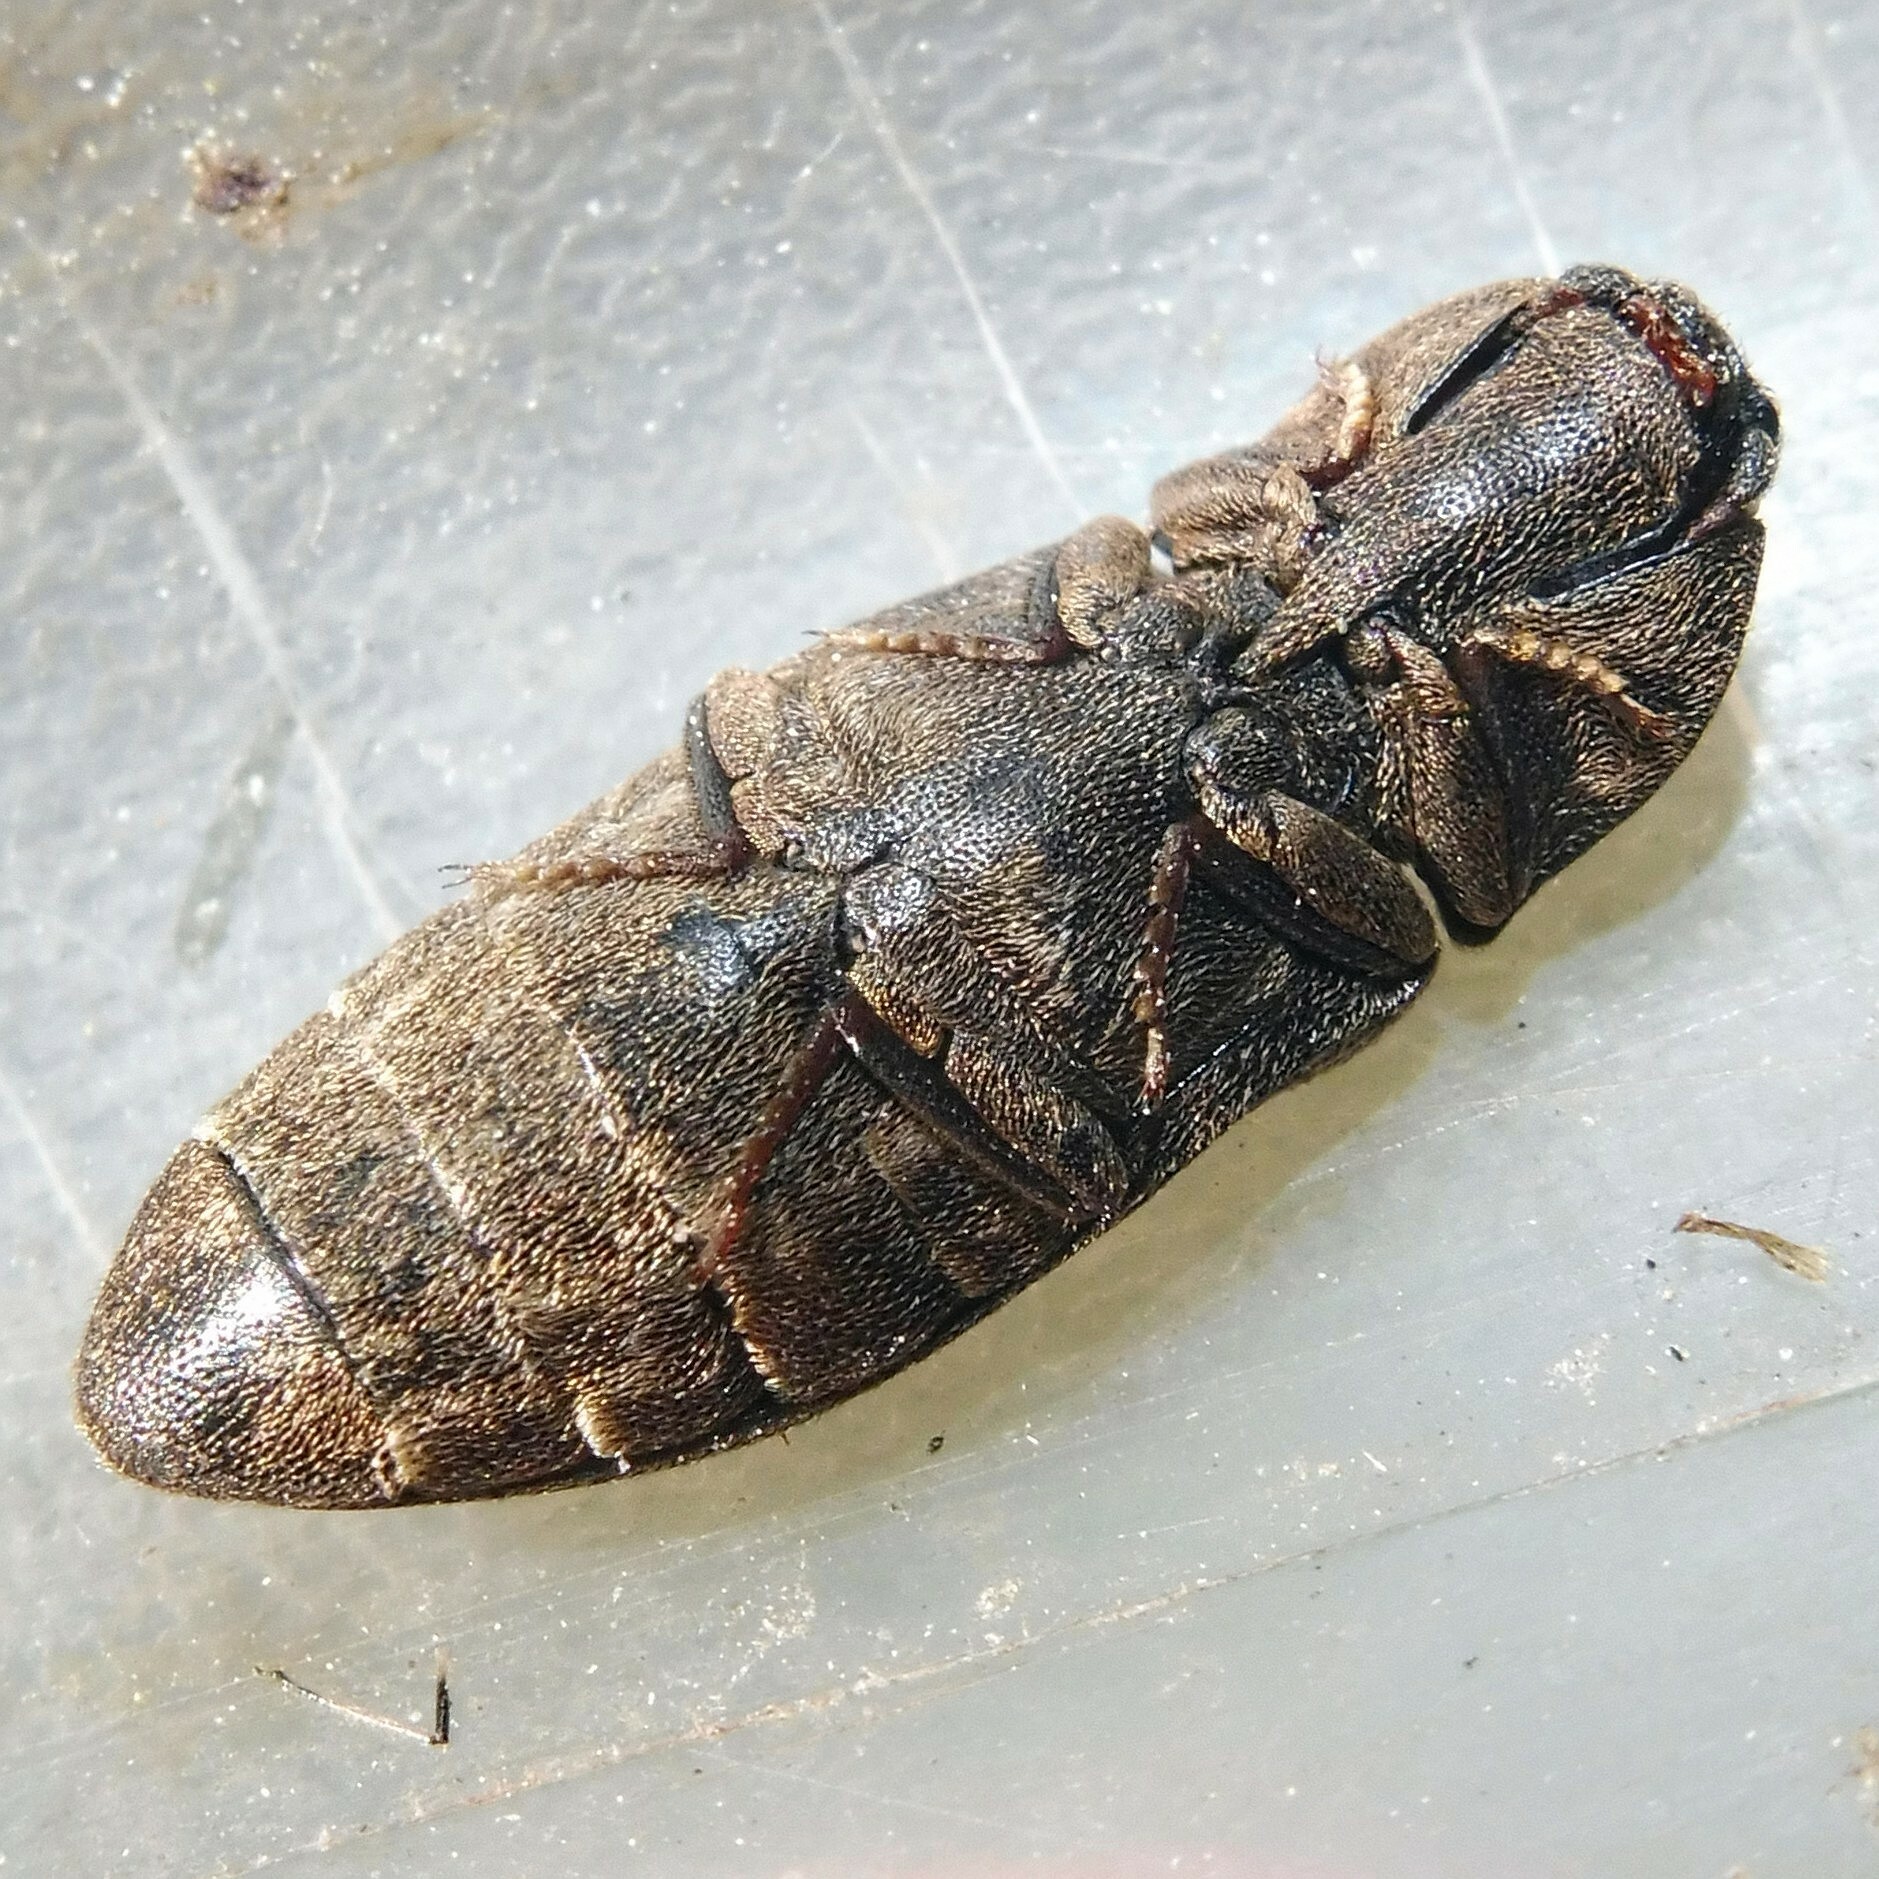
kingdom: Animalia
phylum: Arthropoda
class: Insecta
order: Coleoptera
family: Elateridae
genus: Agrypnus
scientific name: Agrypnus murinus
